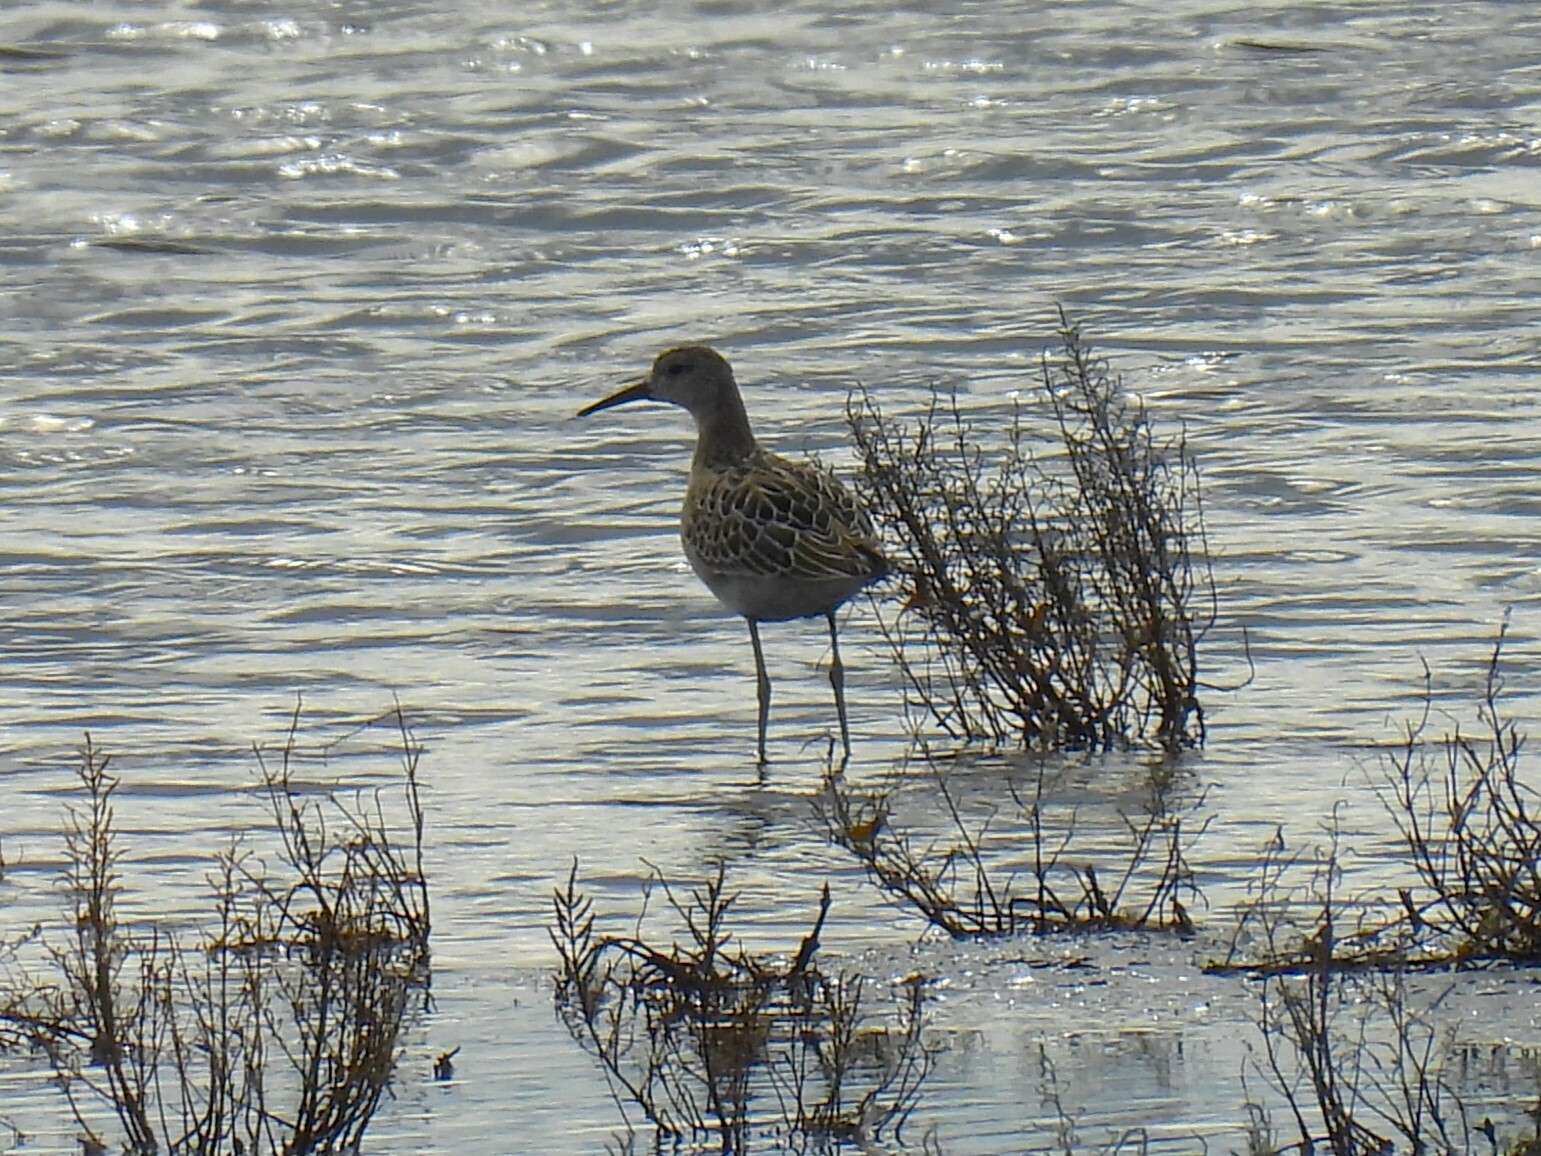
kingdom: Animalia
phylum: Chordata
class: Aves
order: Charadriiformes
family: Scolopacidae
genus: Calidris
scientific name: Calidris pugnax
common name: Ruff
